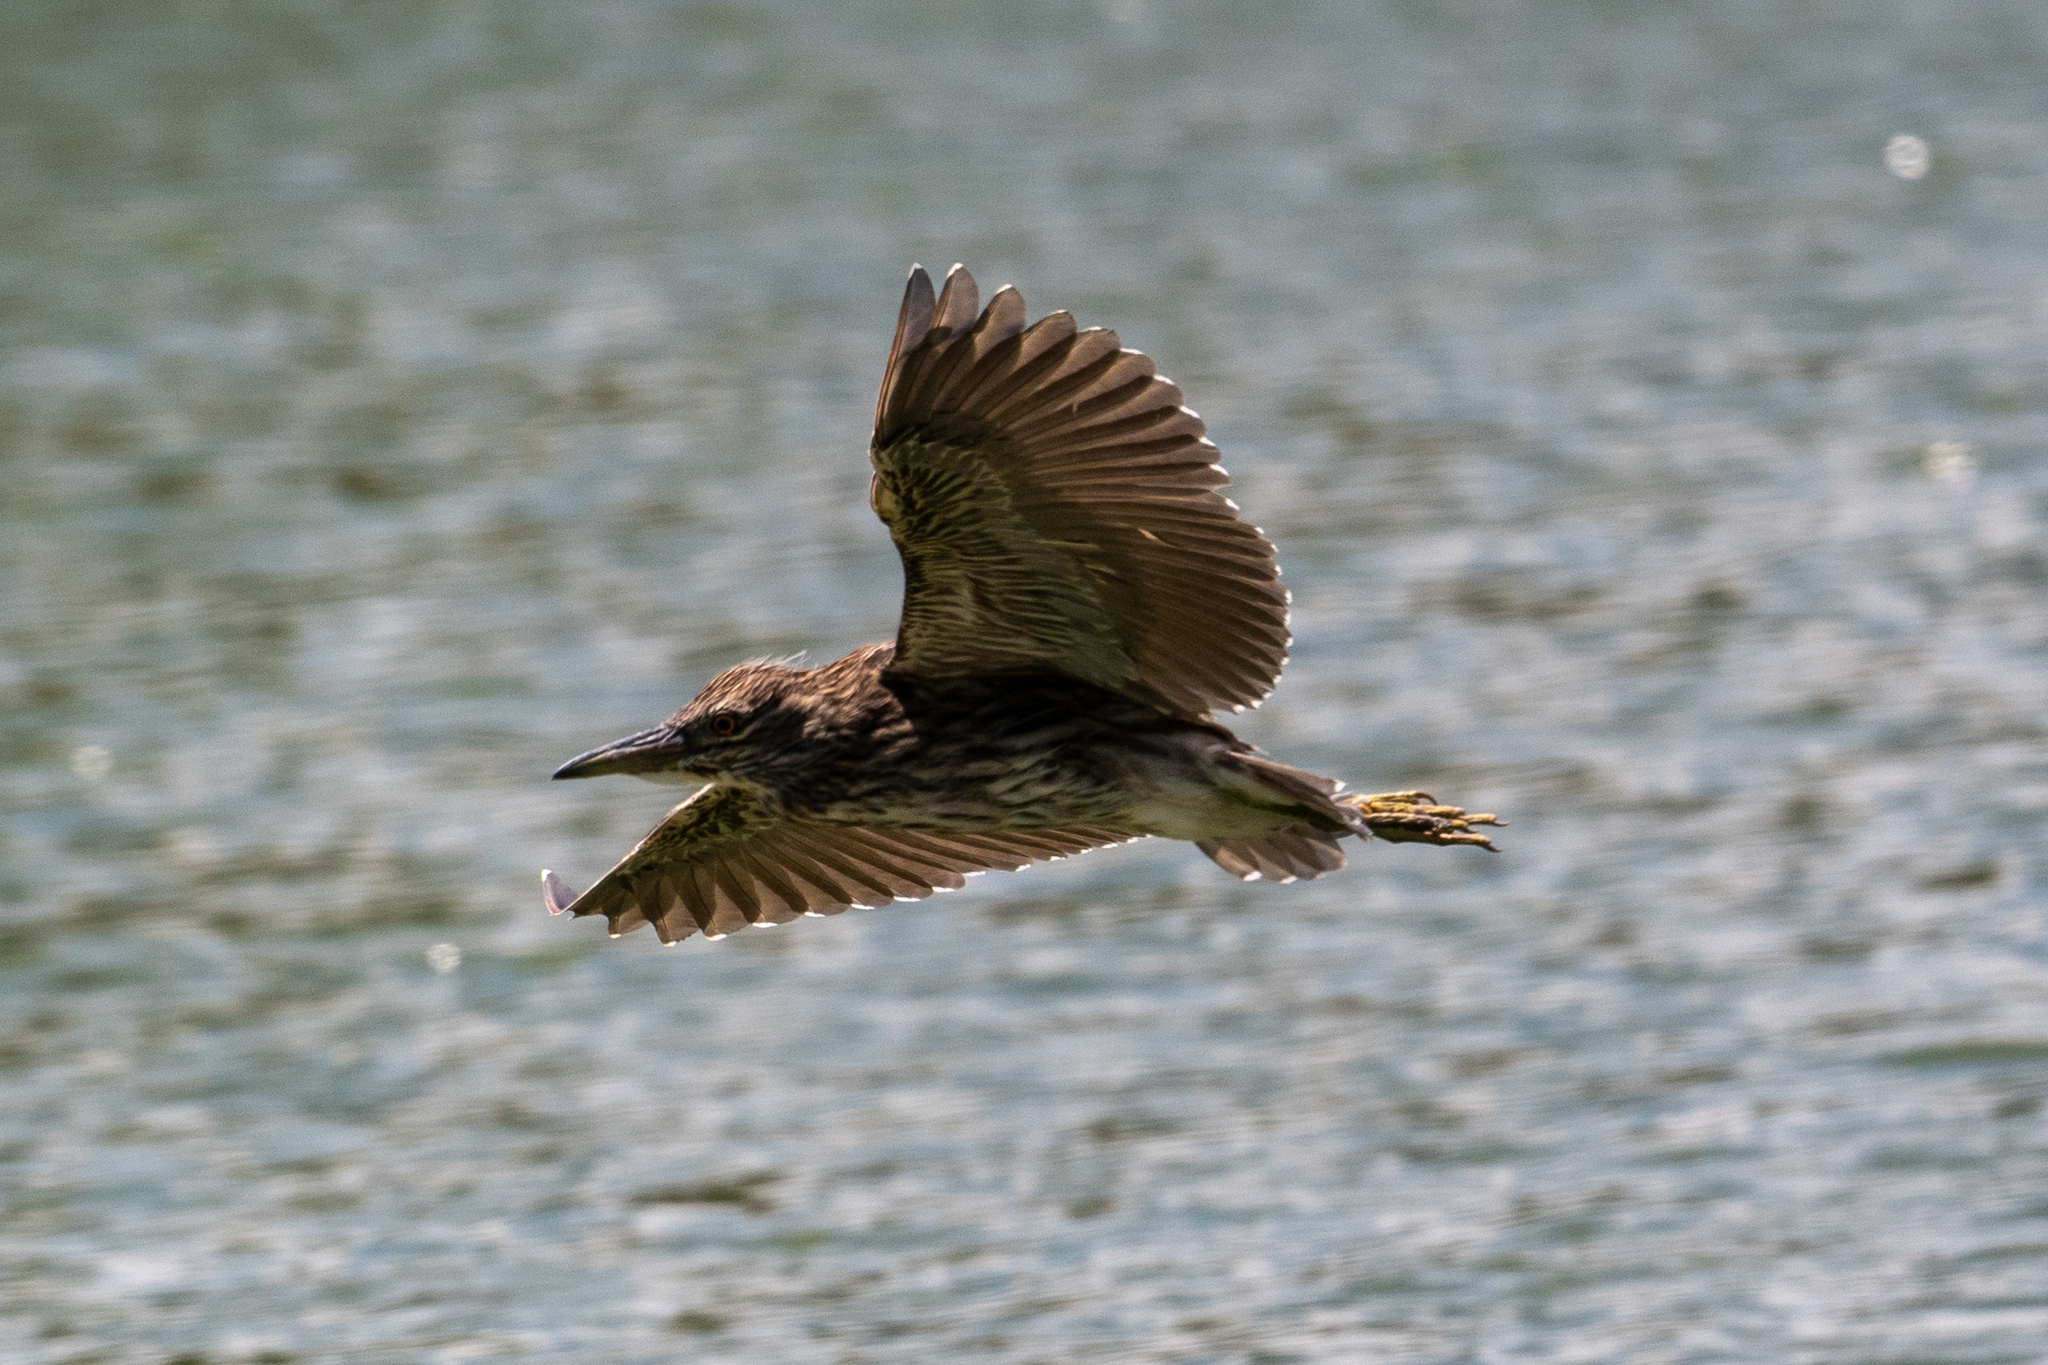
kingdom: Animalia
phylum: Chordata
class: Aves
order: Pelecaniformes
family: Ardeidae
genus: Nycticorax
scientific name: Nycticorax nycticorax
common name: Black-crowned night heron
